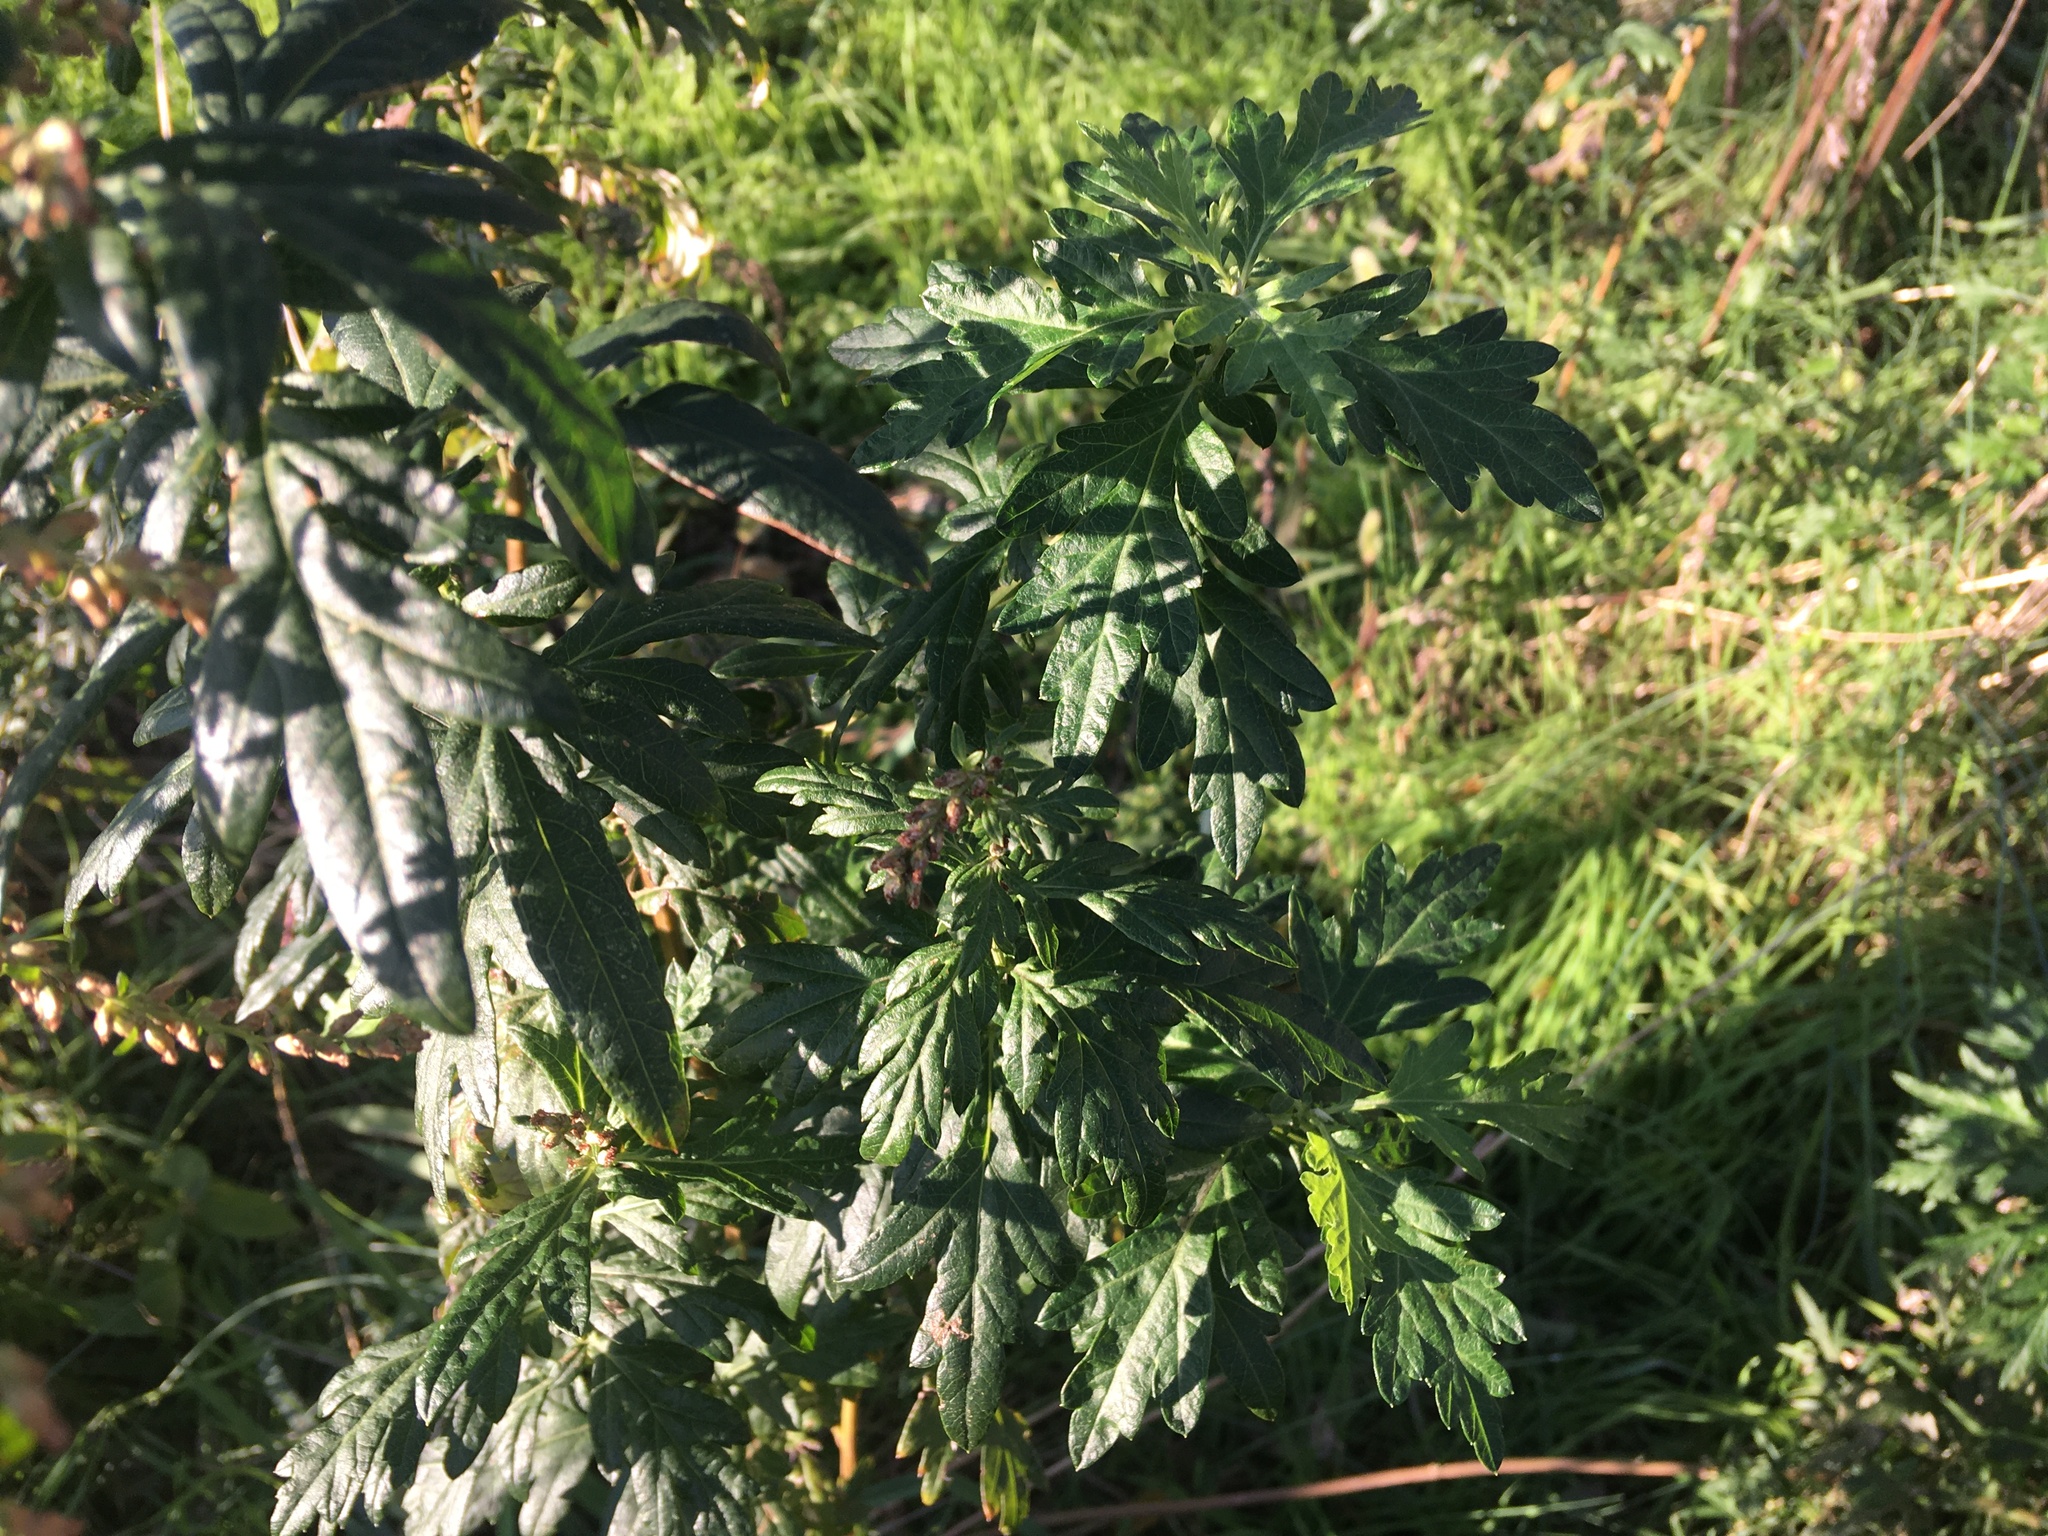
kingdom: Plantae
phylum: Tracheophyta
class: Magnoliopsida
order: Asterales
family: Asteraceae
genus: Artemisia
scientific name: Artemisia vulgaris
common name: Mugwort
